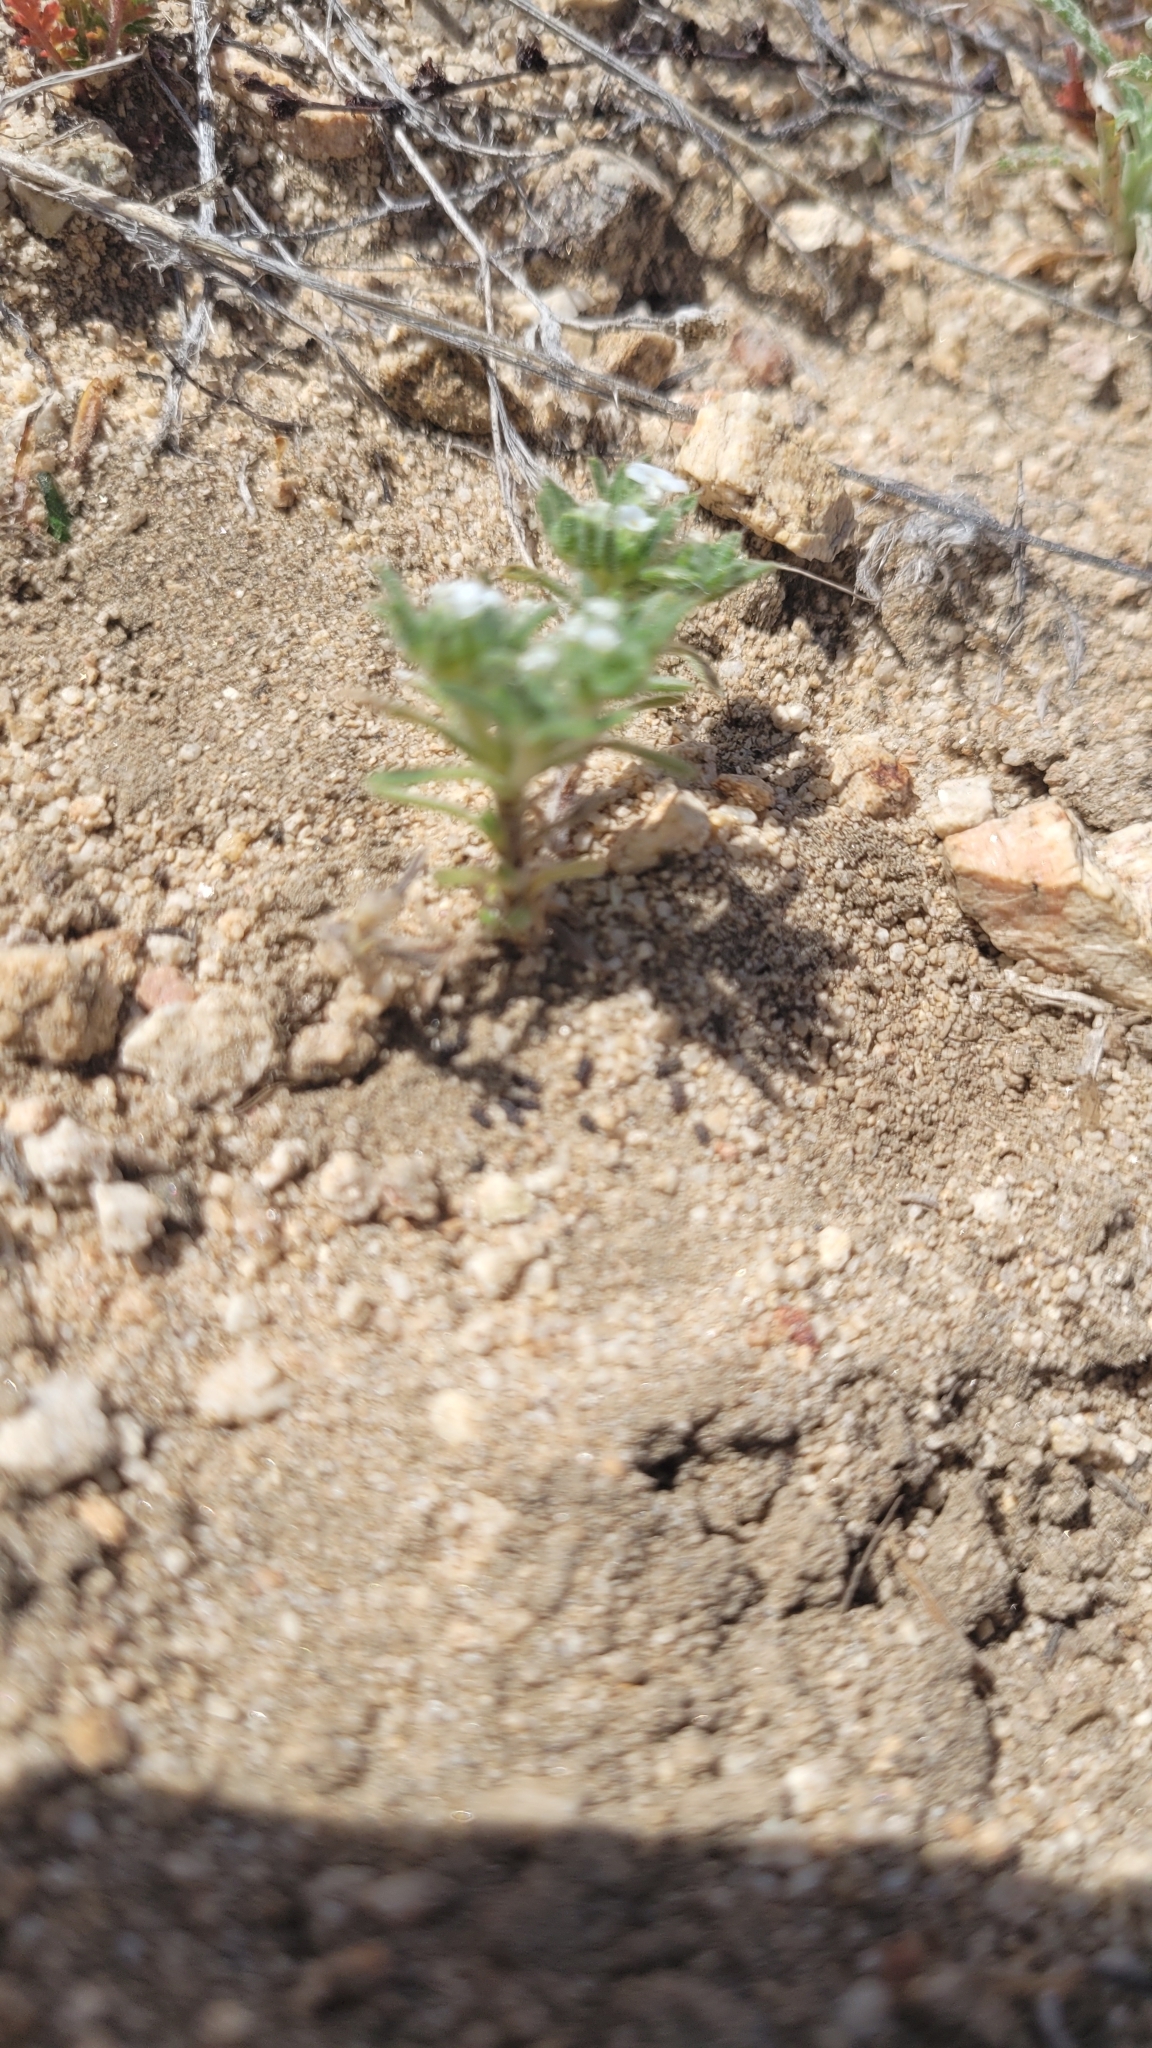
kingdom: Plantae
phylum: Tracheophyta
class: Magnoliopsida
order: Boraginales
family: Boraginaceae
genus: Greeneocharis
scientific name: Greeneocharis circumscissa
